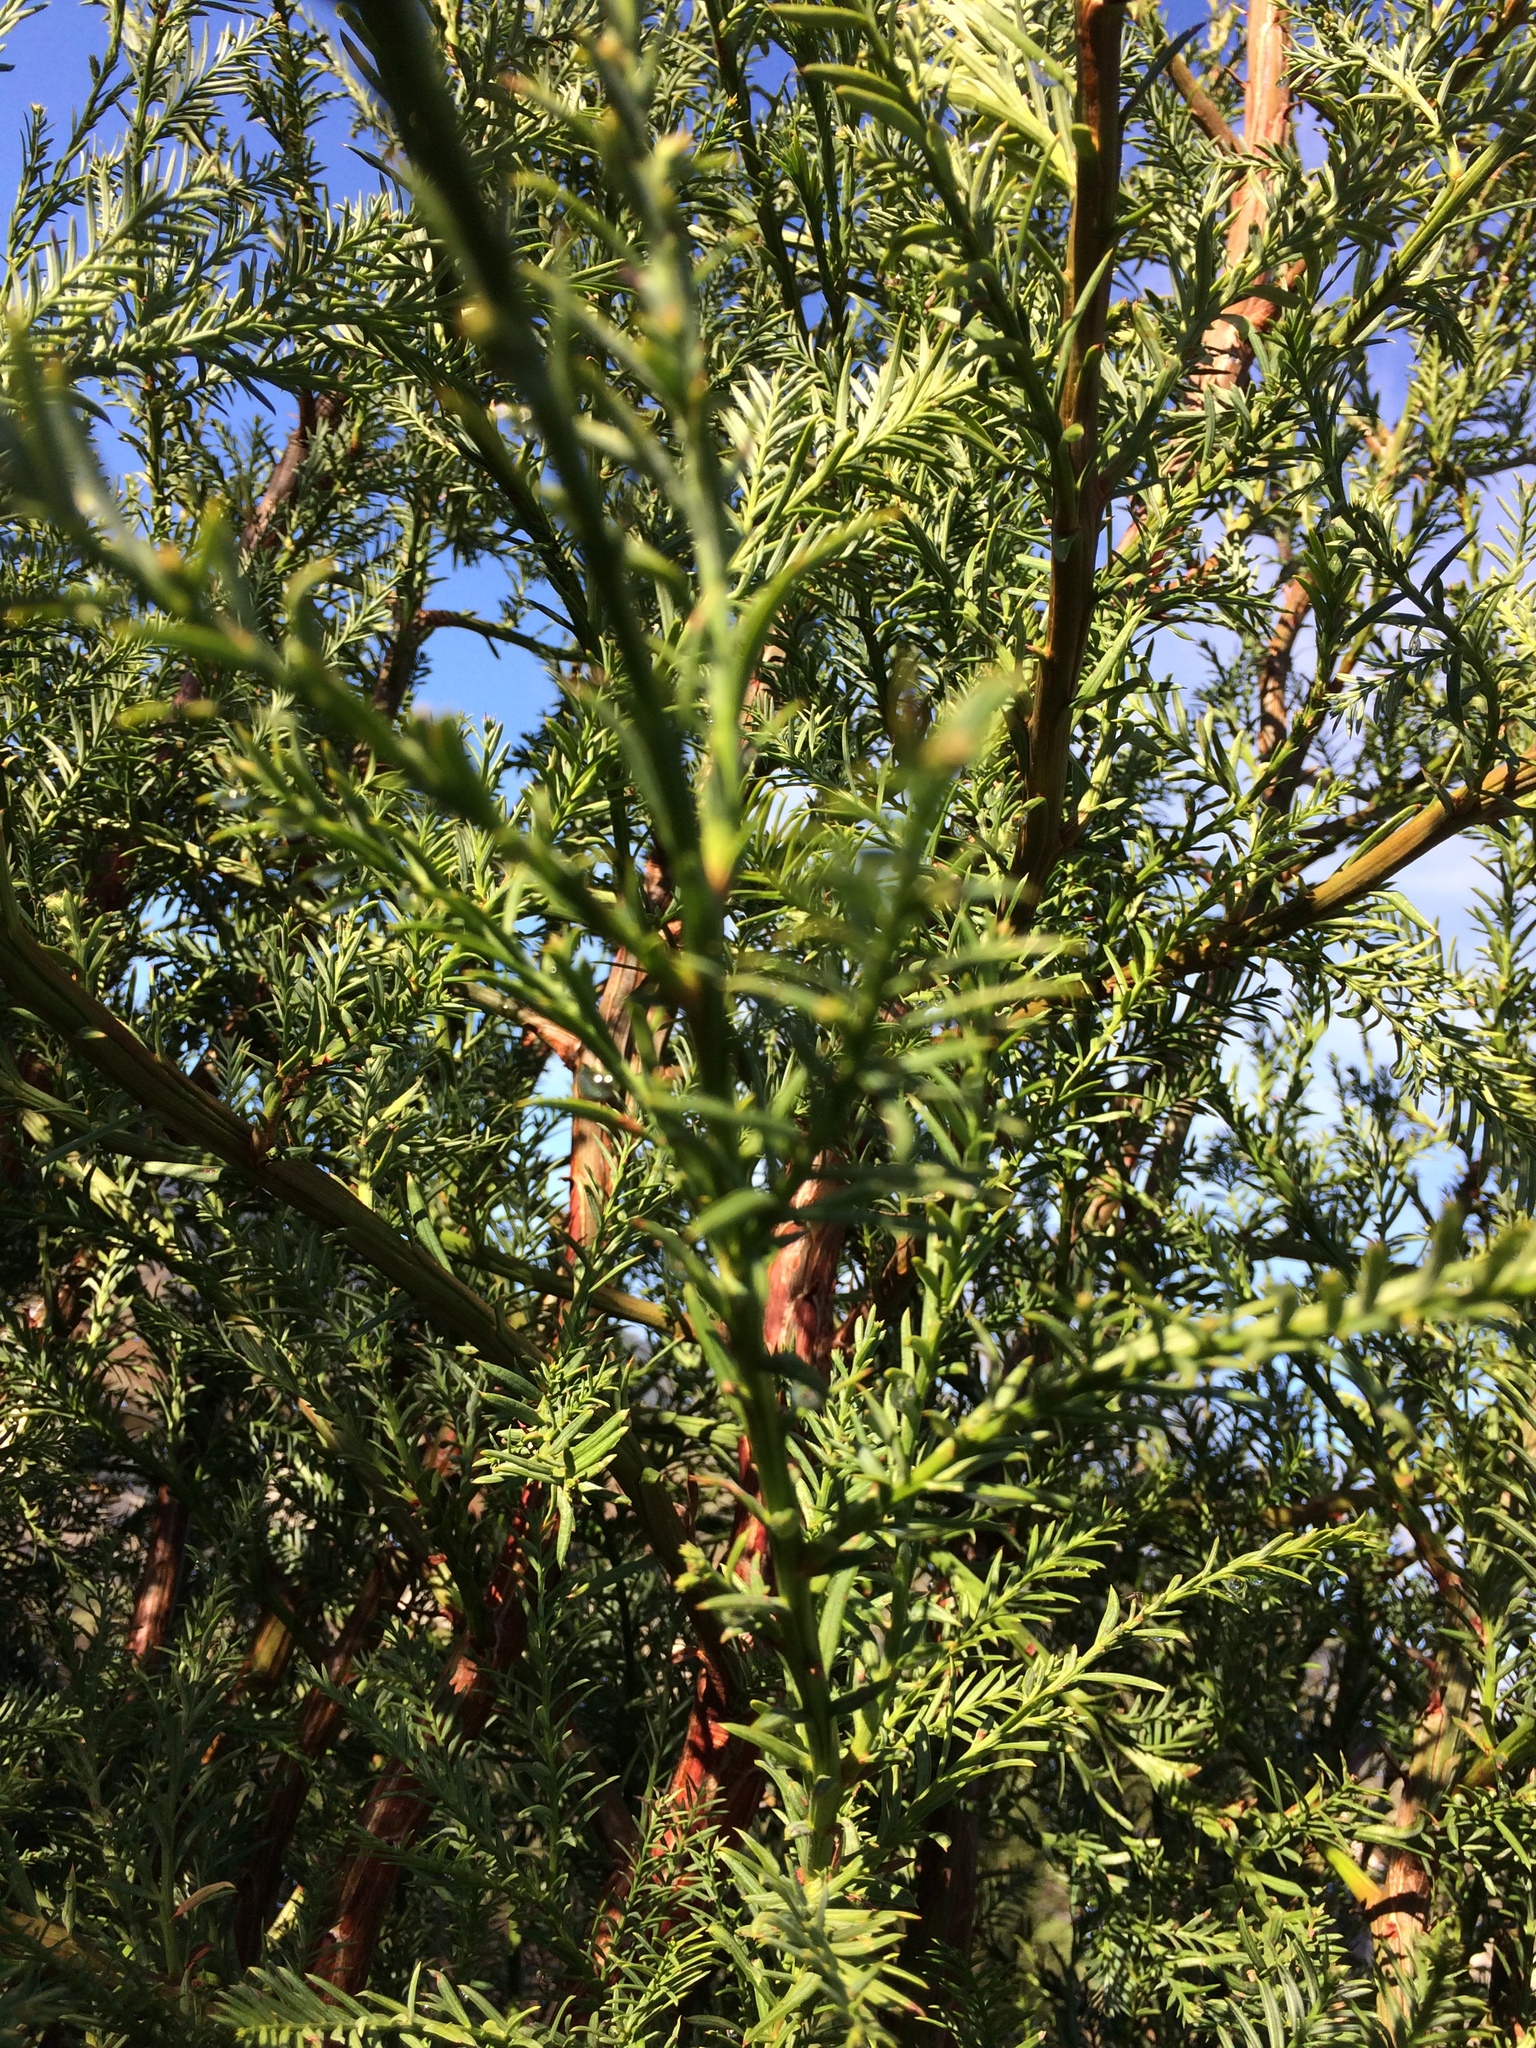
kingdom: Plantae
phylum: Tracheophyta
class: Pinopsida
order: Pinales
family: Cupressaceae
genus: Sequoia
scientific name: Sequoia sempervirens
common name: Coast redwood
